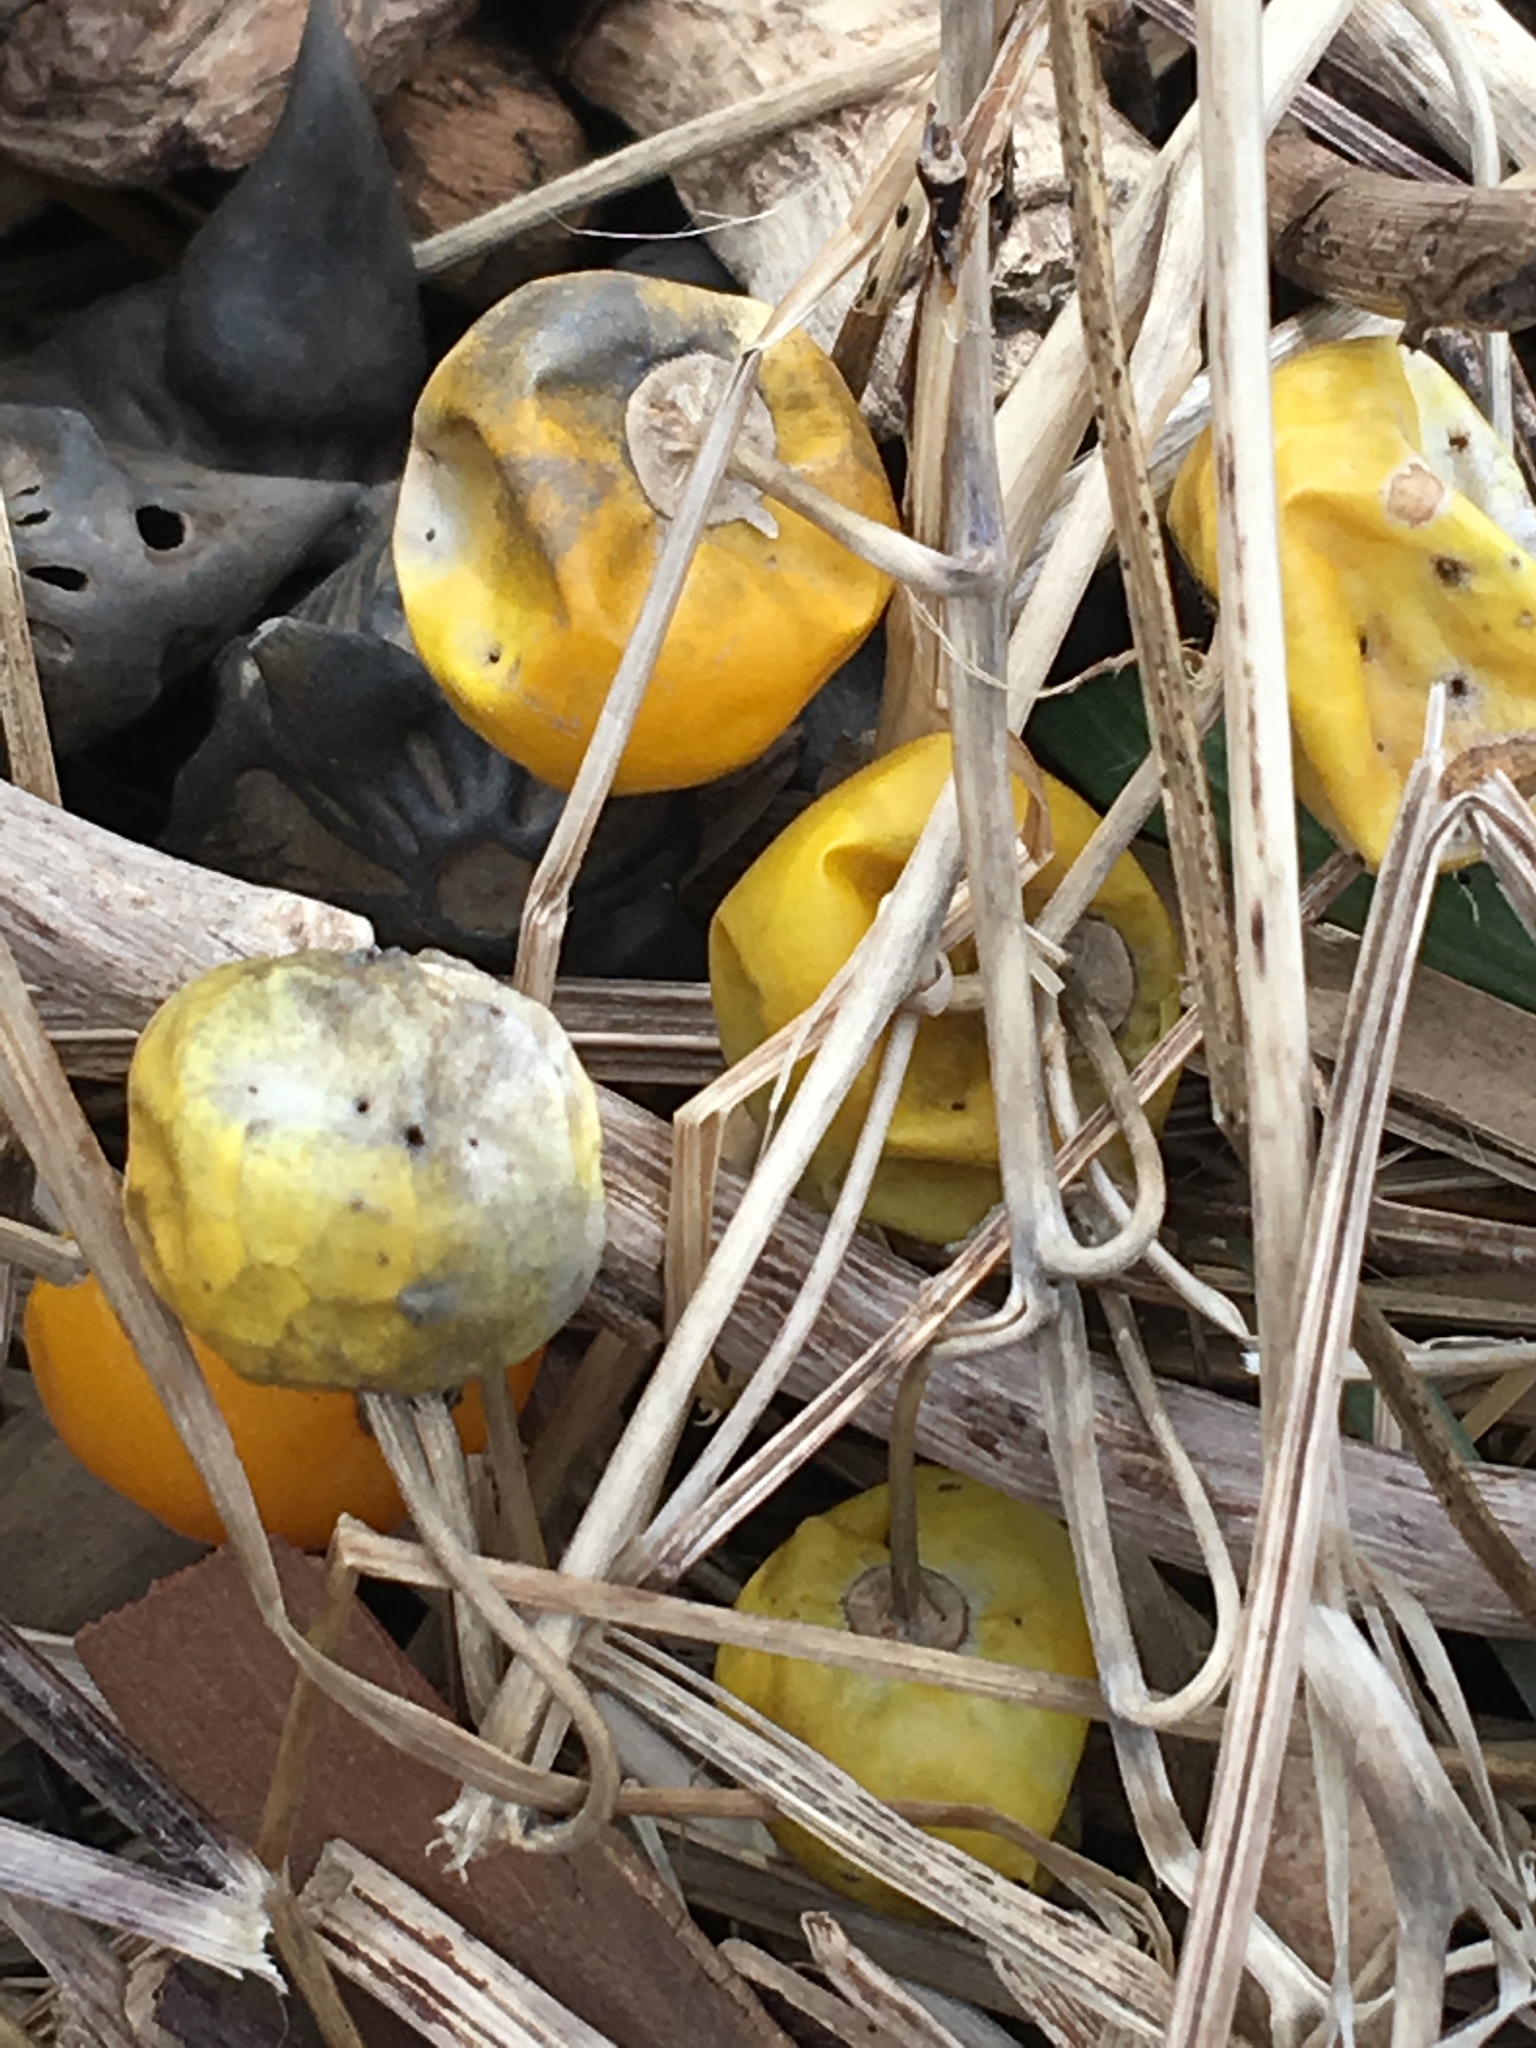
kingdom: Plantae
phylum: Tracheophyta
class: Magnoliopsida
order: Solanales
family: Solanaceae
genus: Solanum
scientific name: Solanum carolinense
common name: Horse-nettle
